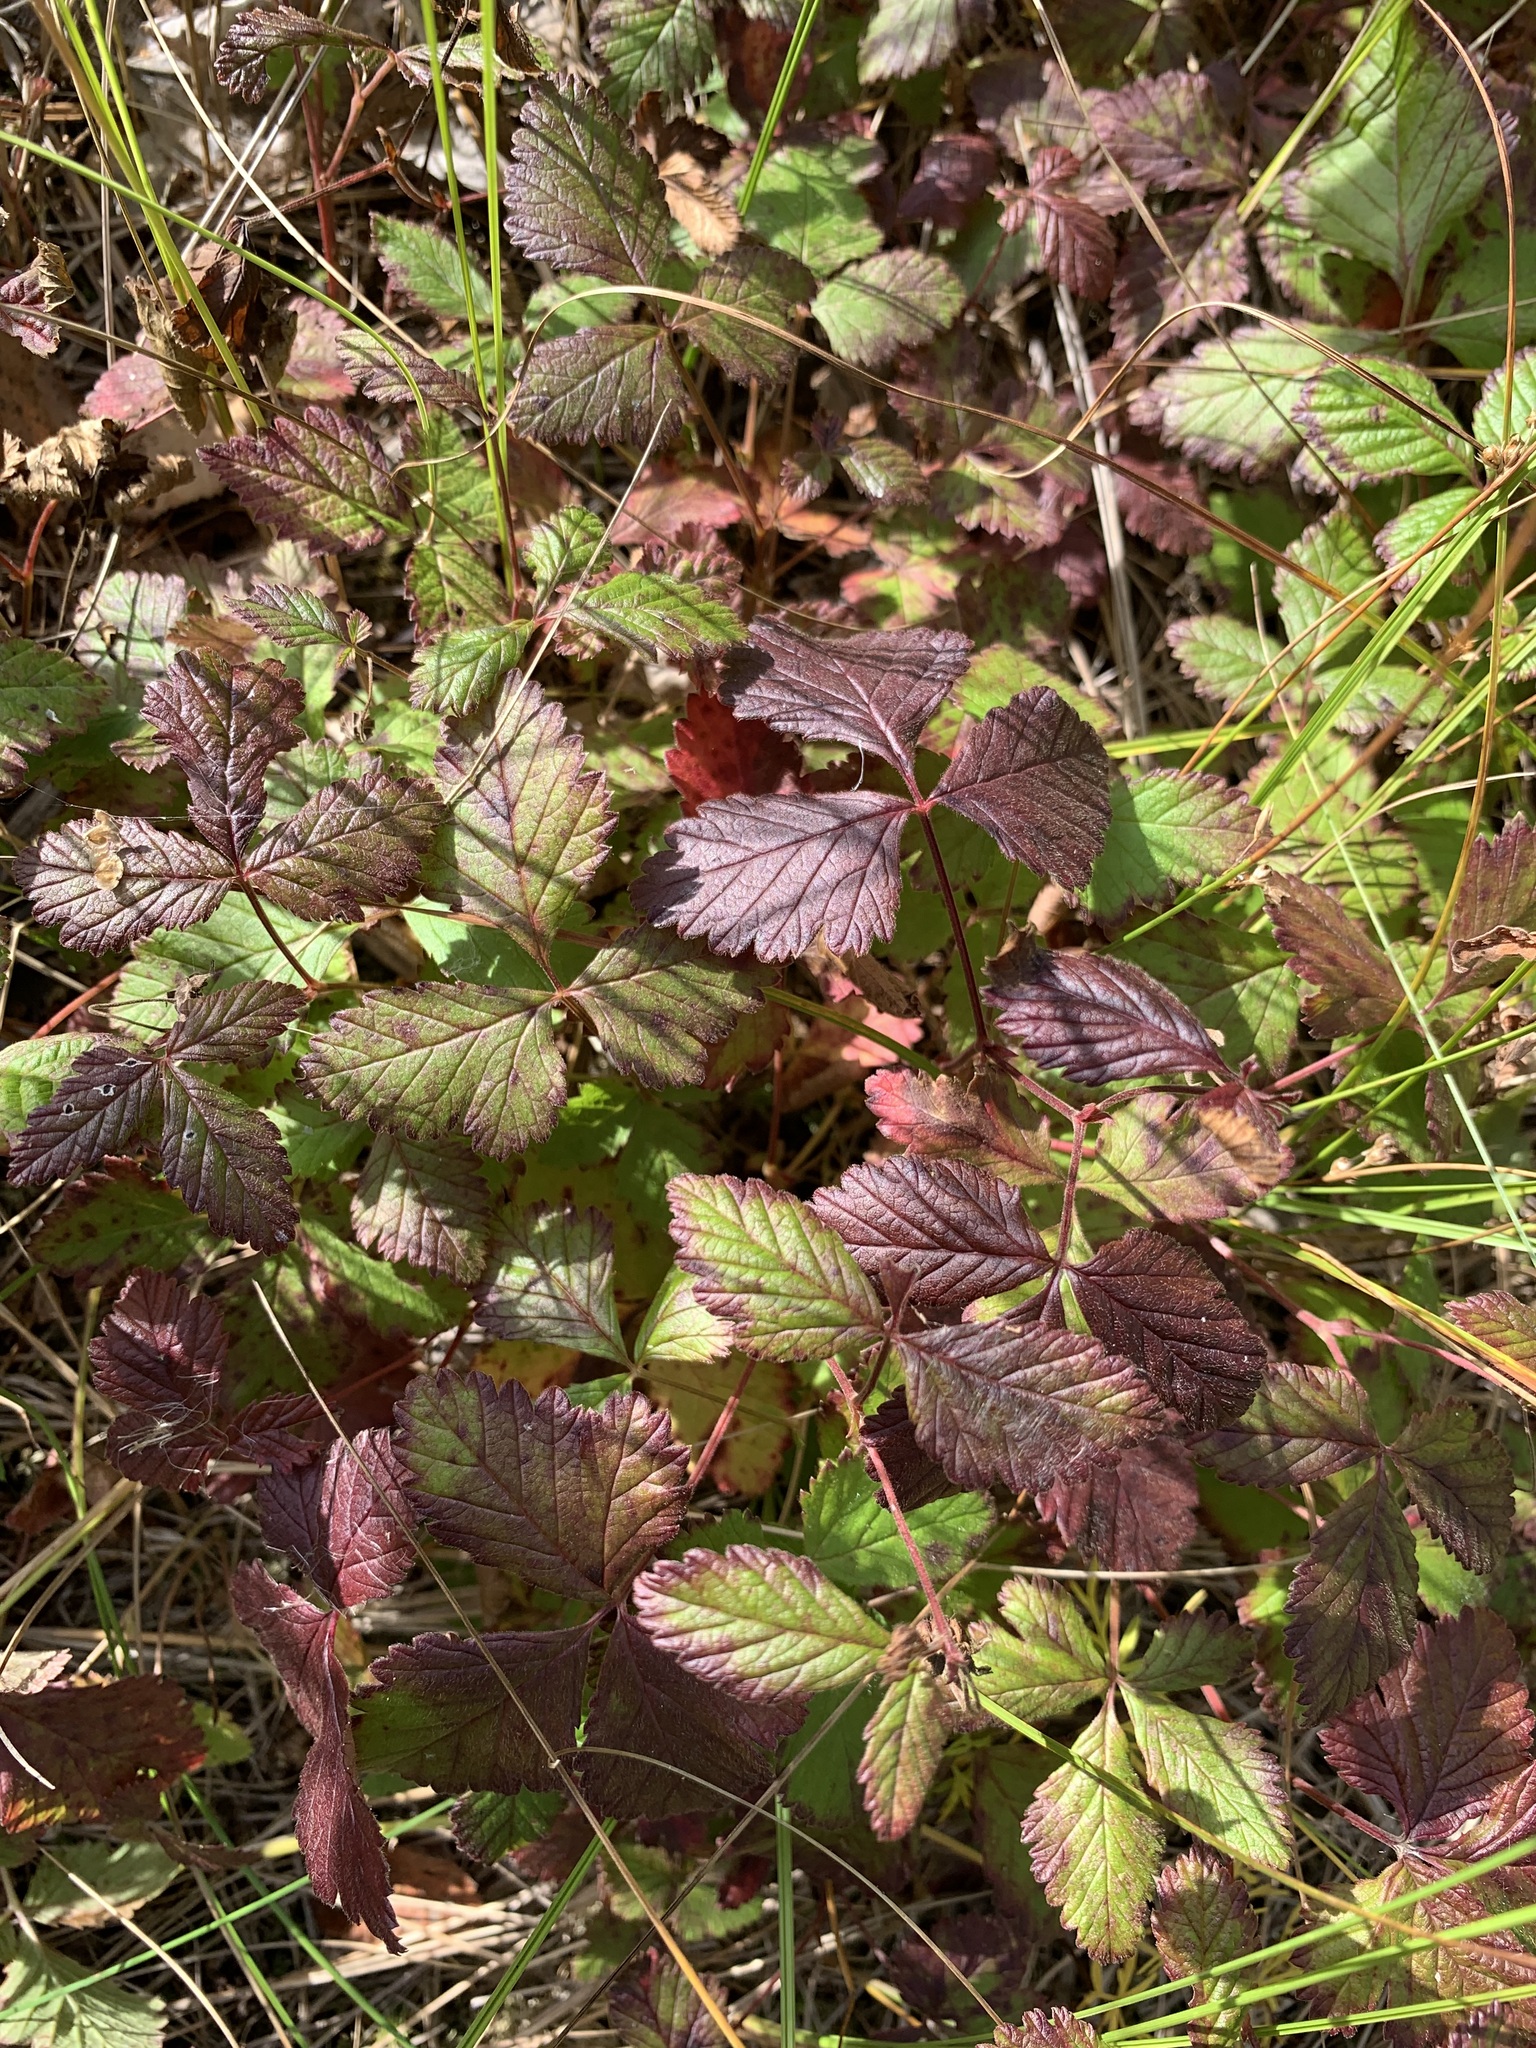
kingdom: Plantae
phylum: Tracheophyta
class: Magnoliopsida
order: Rosales
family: Rosaceae
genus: Rubus
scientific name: Rubus arcticus
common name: Arctic bramble
